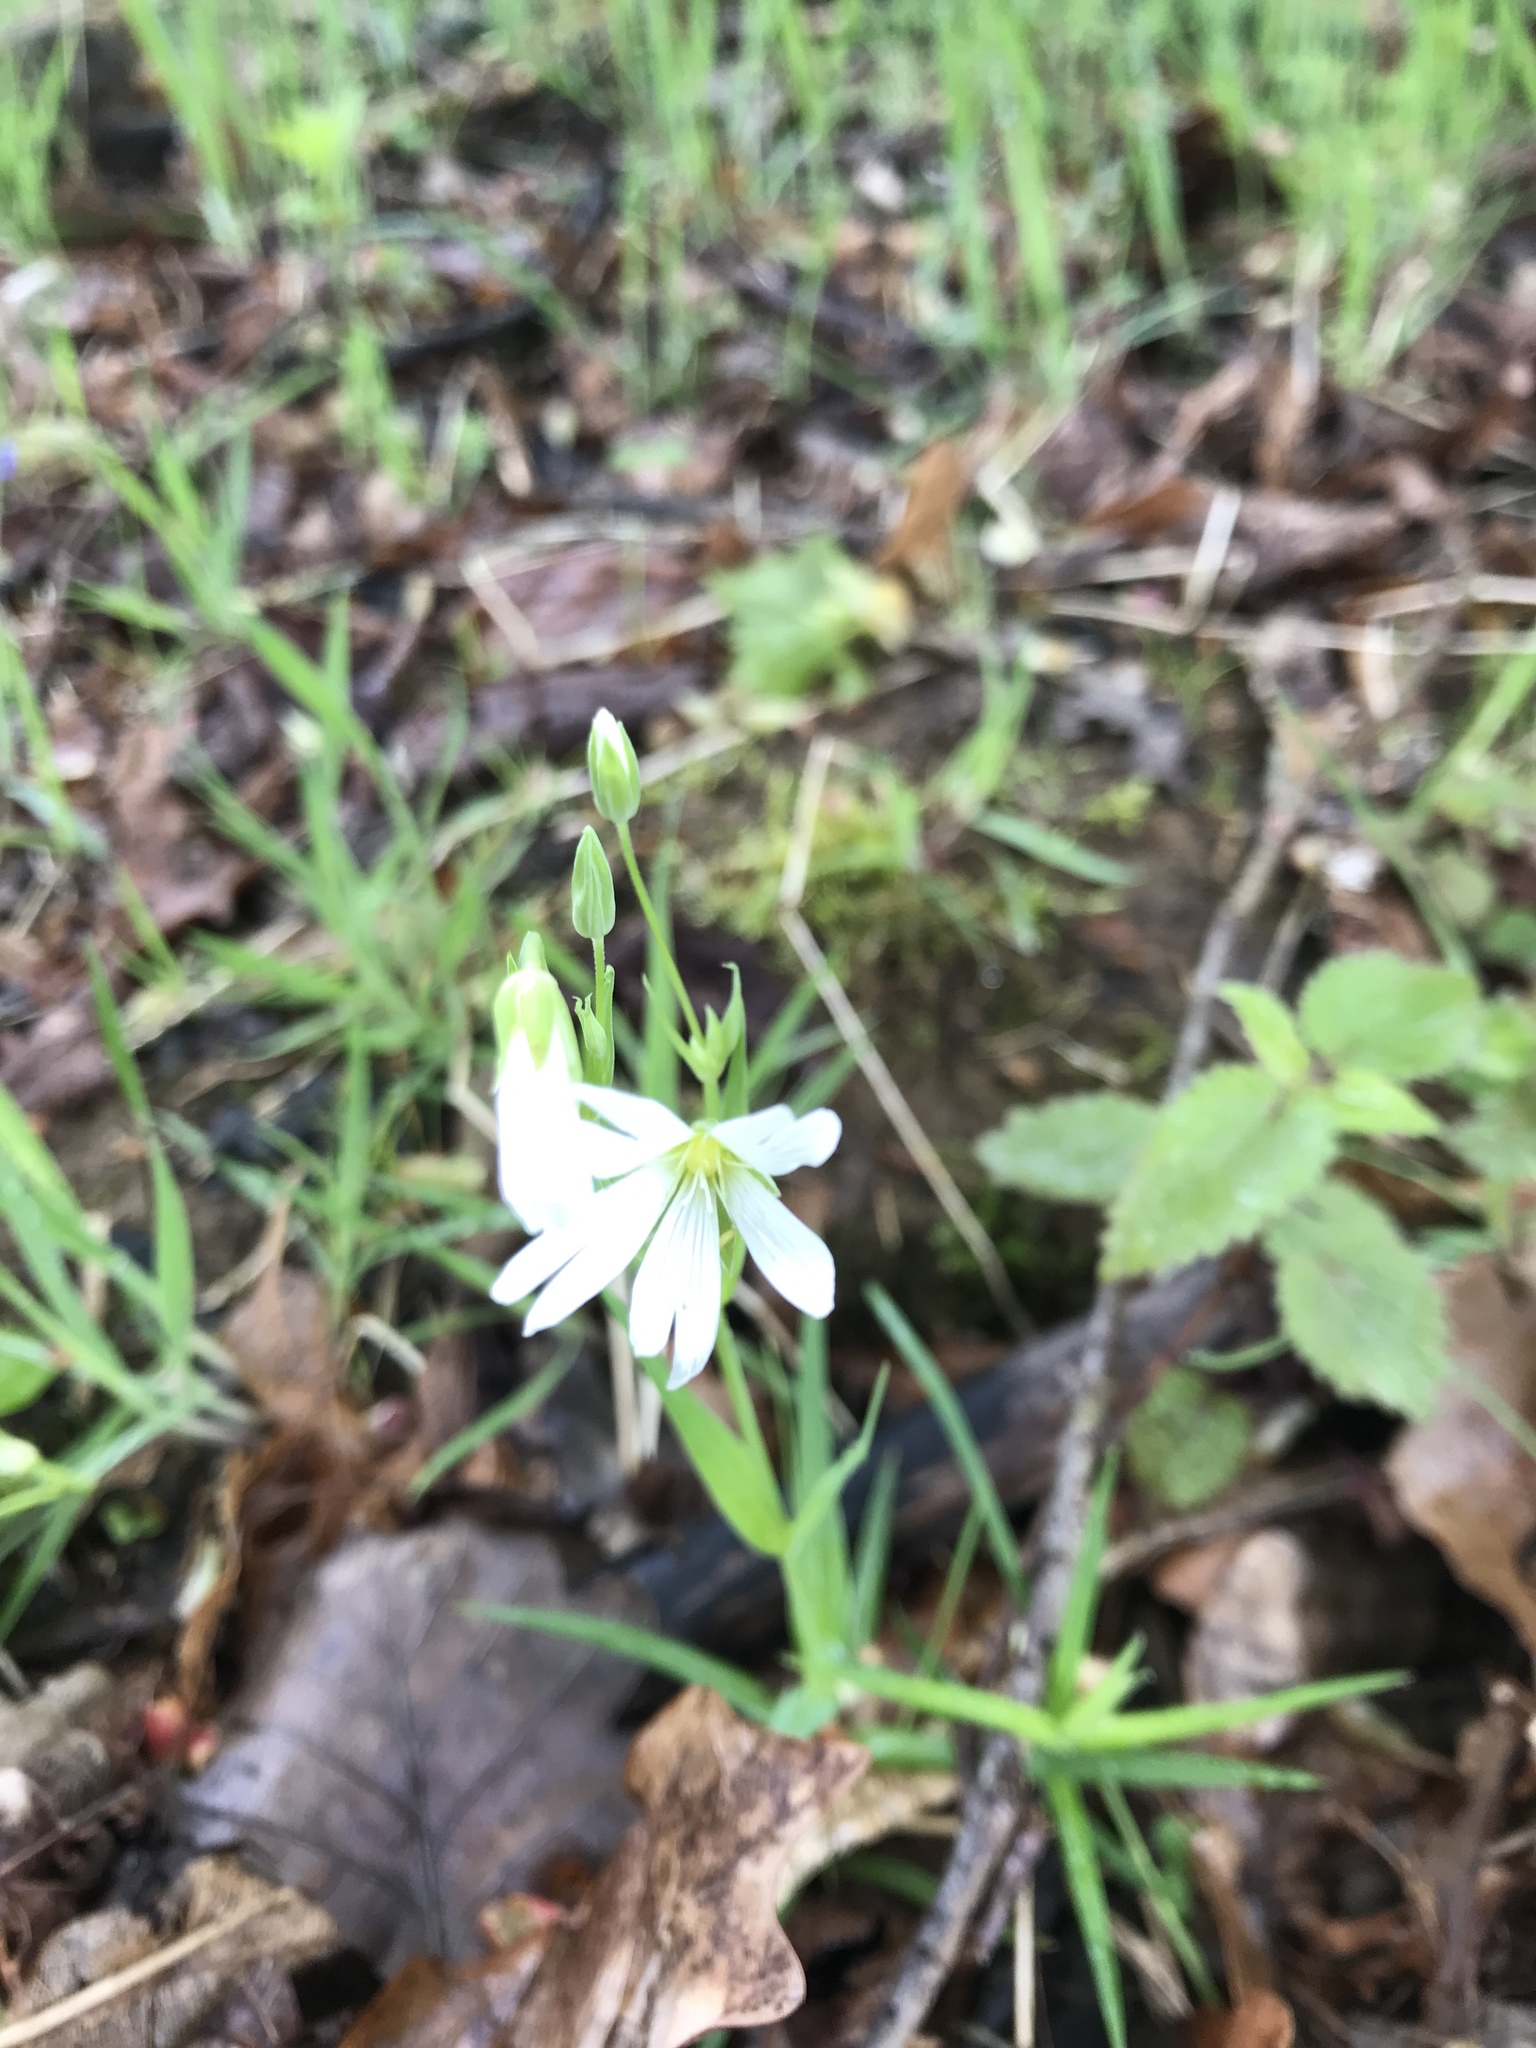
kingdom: Plantae
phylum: Tracheophyta
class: Magnoliopsida
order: Caryophyllales
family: Caryophyllaceae
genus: Rabelera
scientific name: Rabelera holostea
